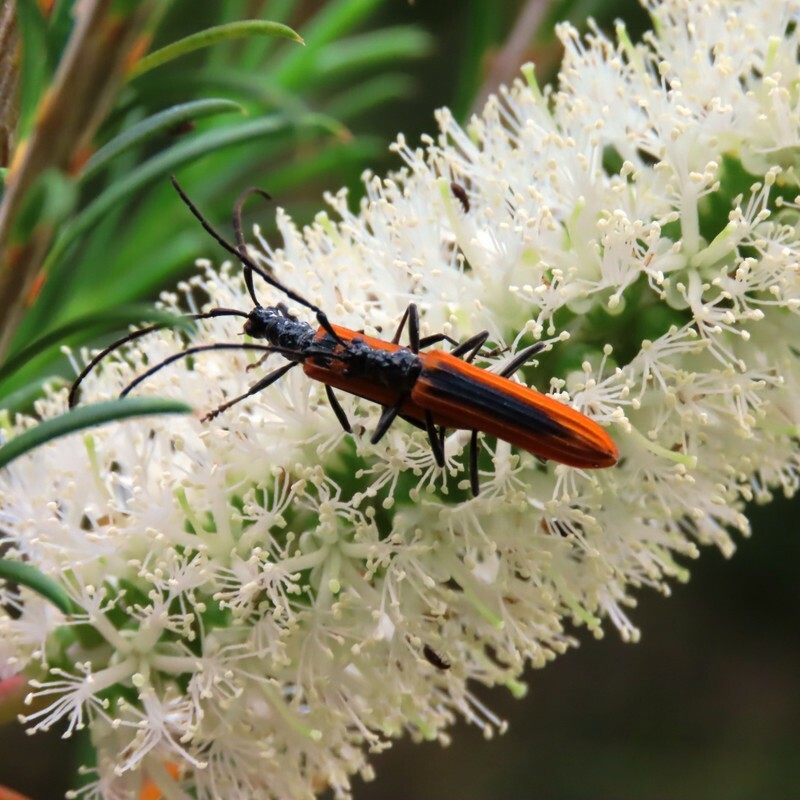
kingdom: Animalia
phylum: Arthropoda
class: Insecta
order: Coleoptera
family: Cerambycidae
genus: Stenoderus
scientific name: Stenoderus suturalis
